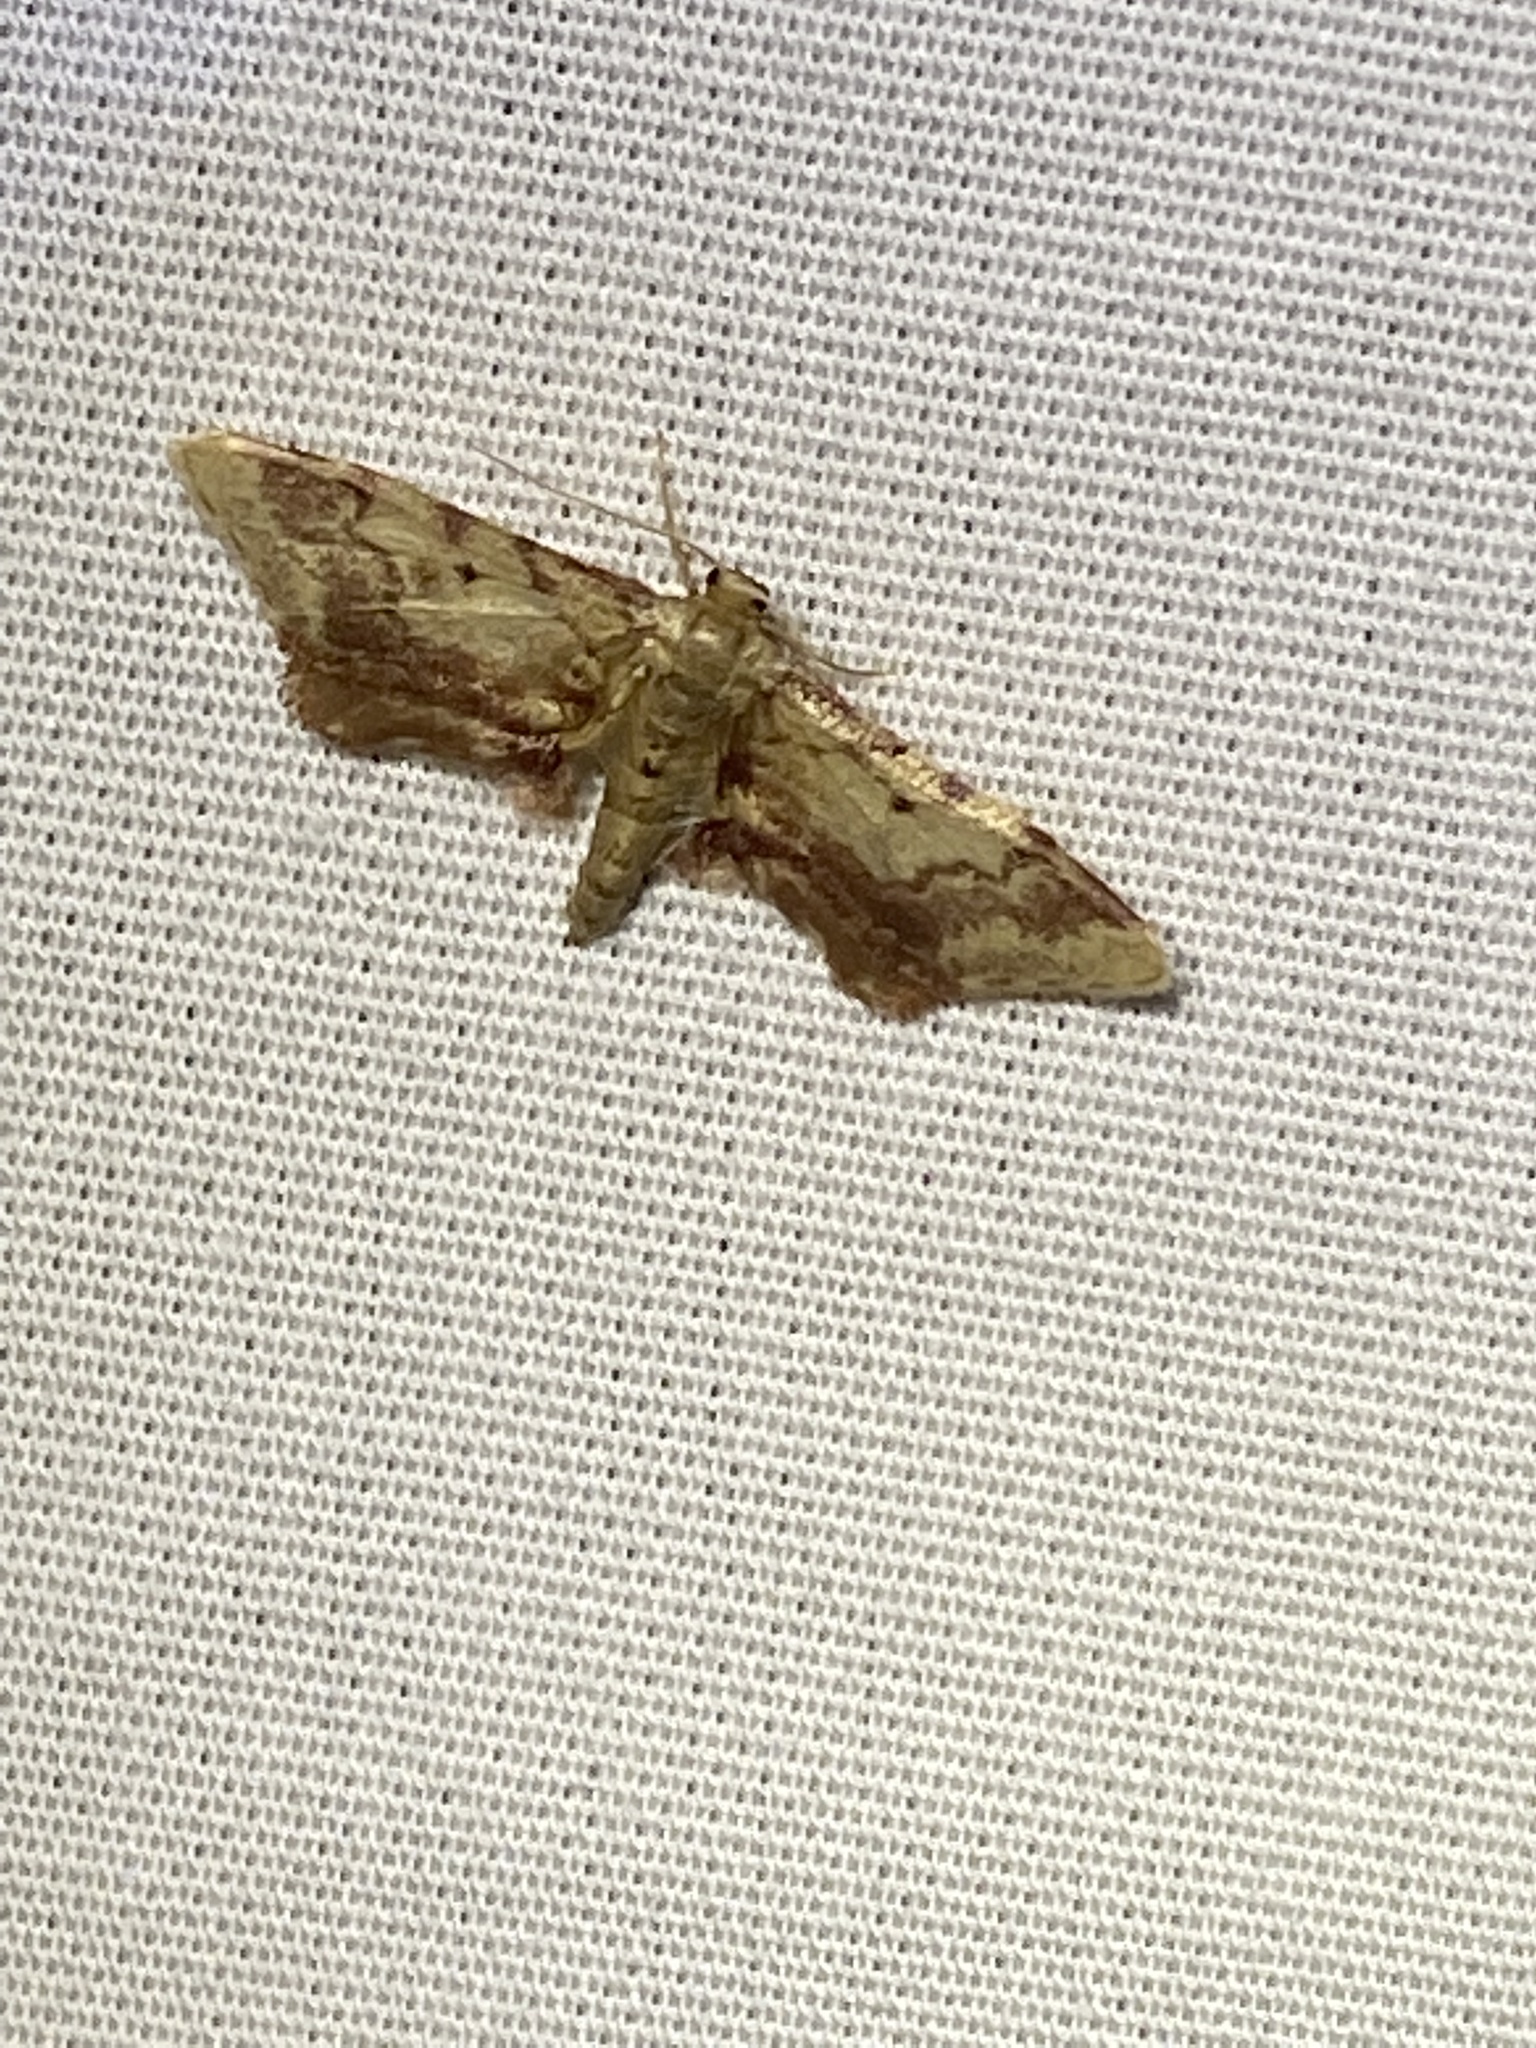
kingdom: Animalia
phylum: Arthropoda
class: Insecta
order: Lepidoptera
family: Geometridae
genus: Idaea
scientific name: Idaea furciferata
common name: Notch-winged wave
